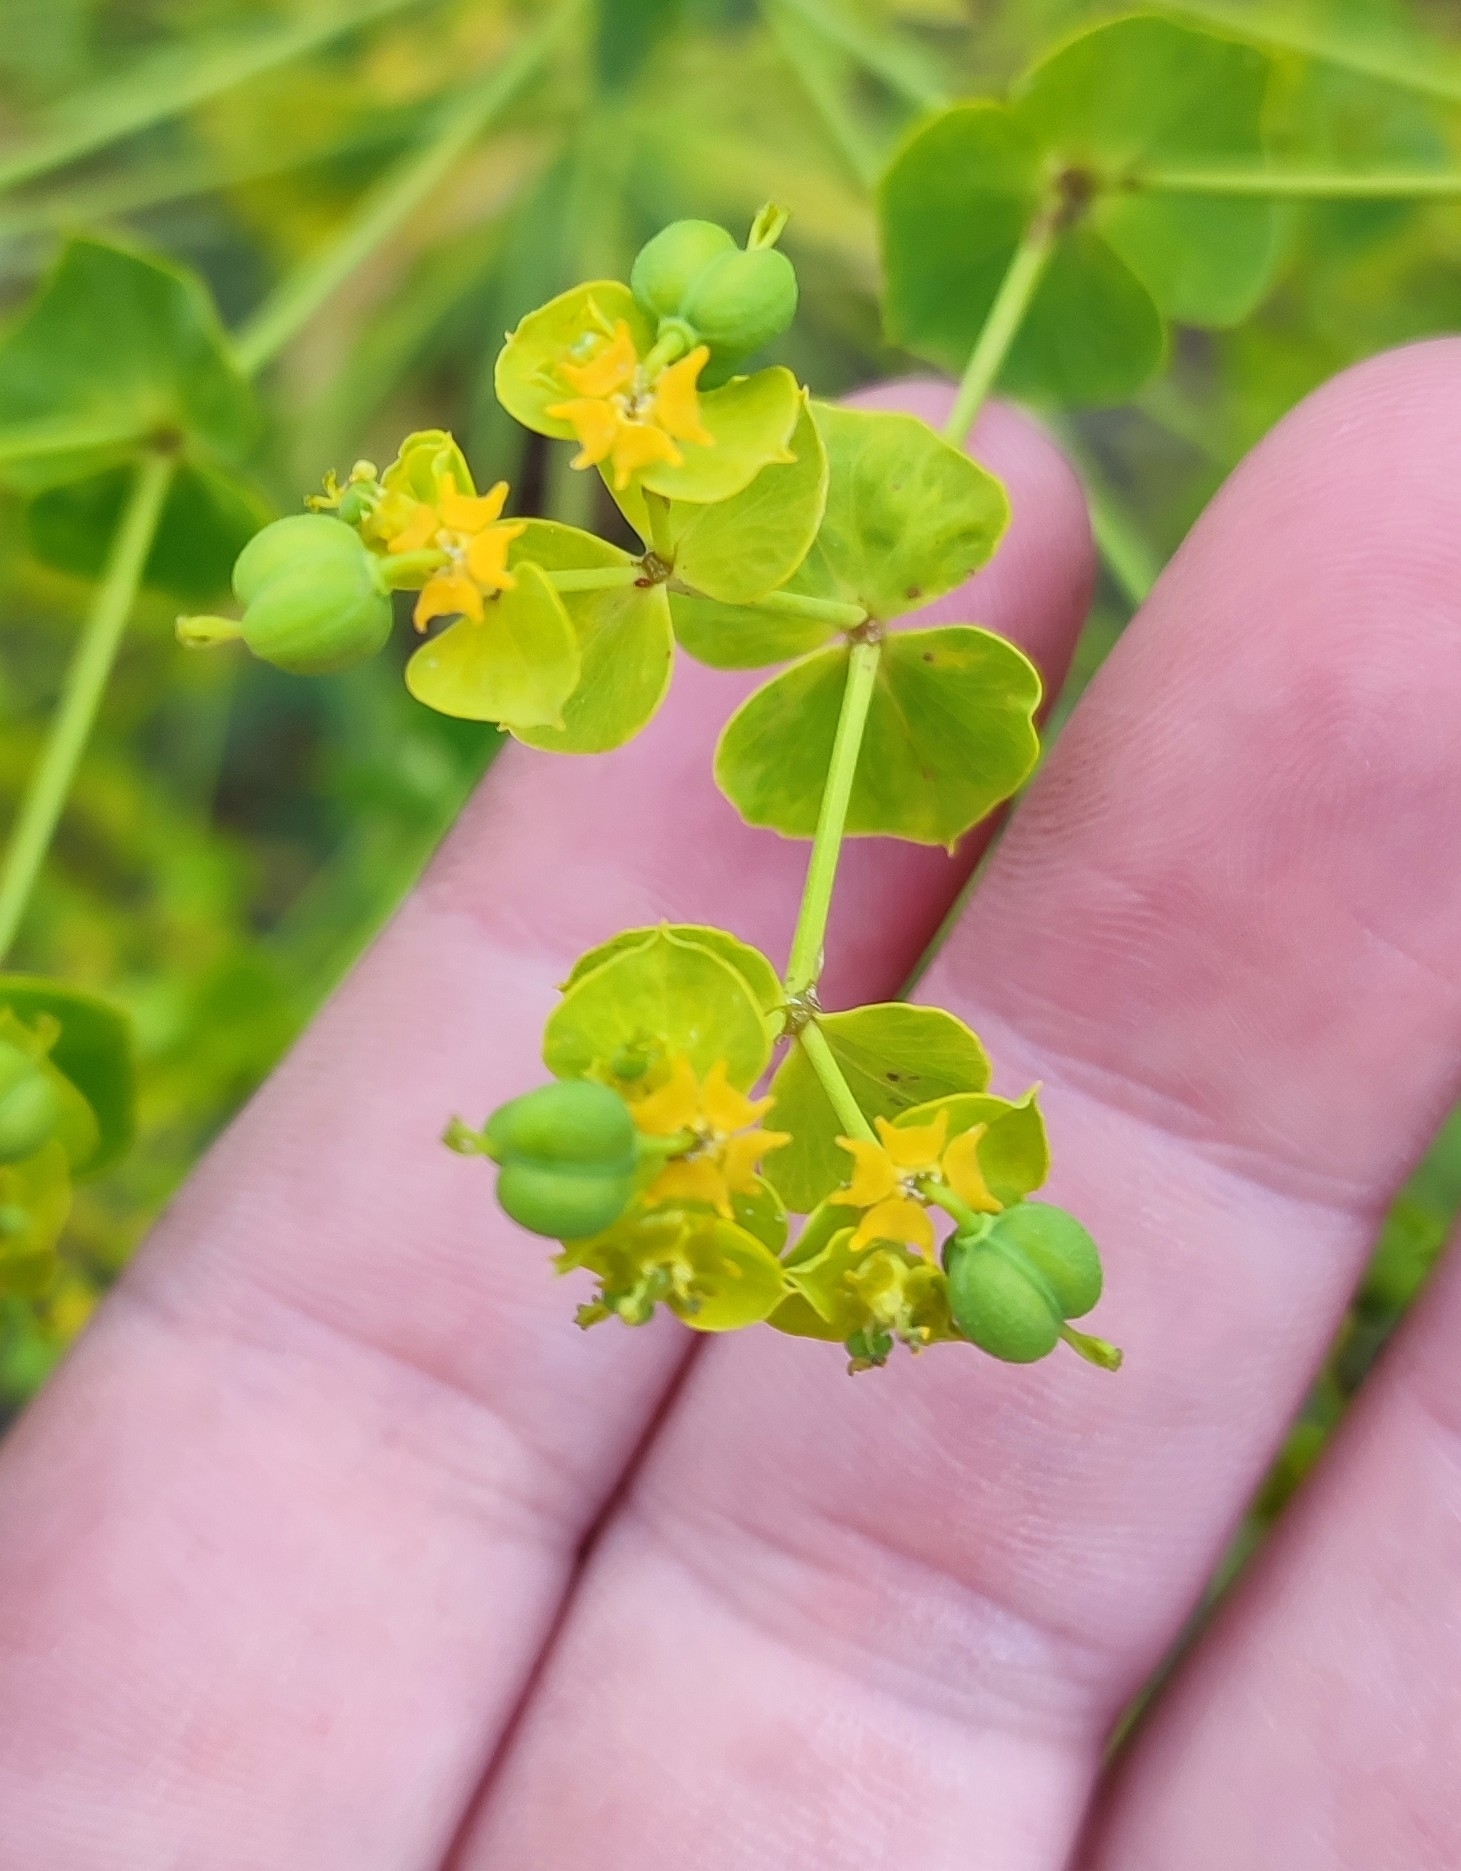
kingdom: Plantae
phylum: Tracheophyta
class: Magnoliopsida
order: Malpighiales
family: Euphorbiaceae
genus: Euphorbia
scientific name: Euphorbia uralensis
